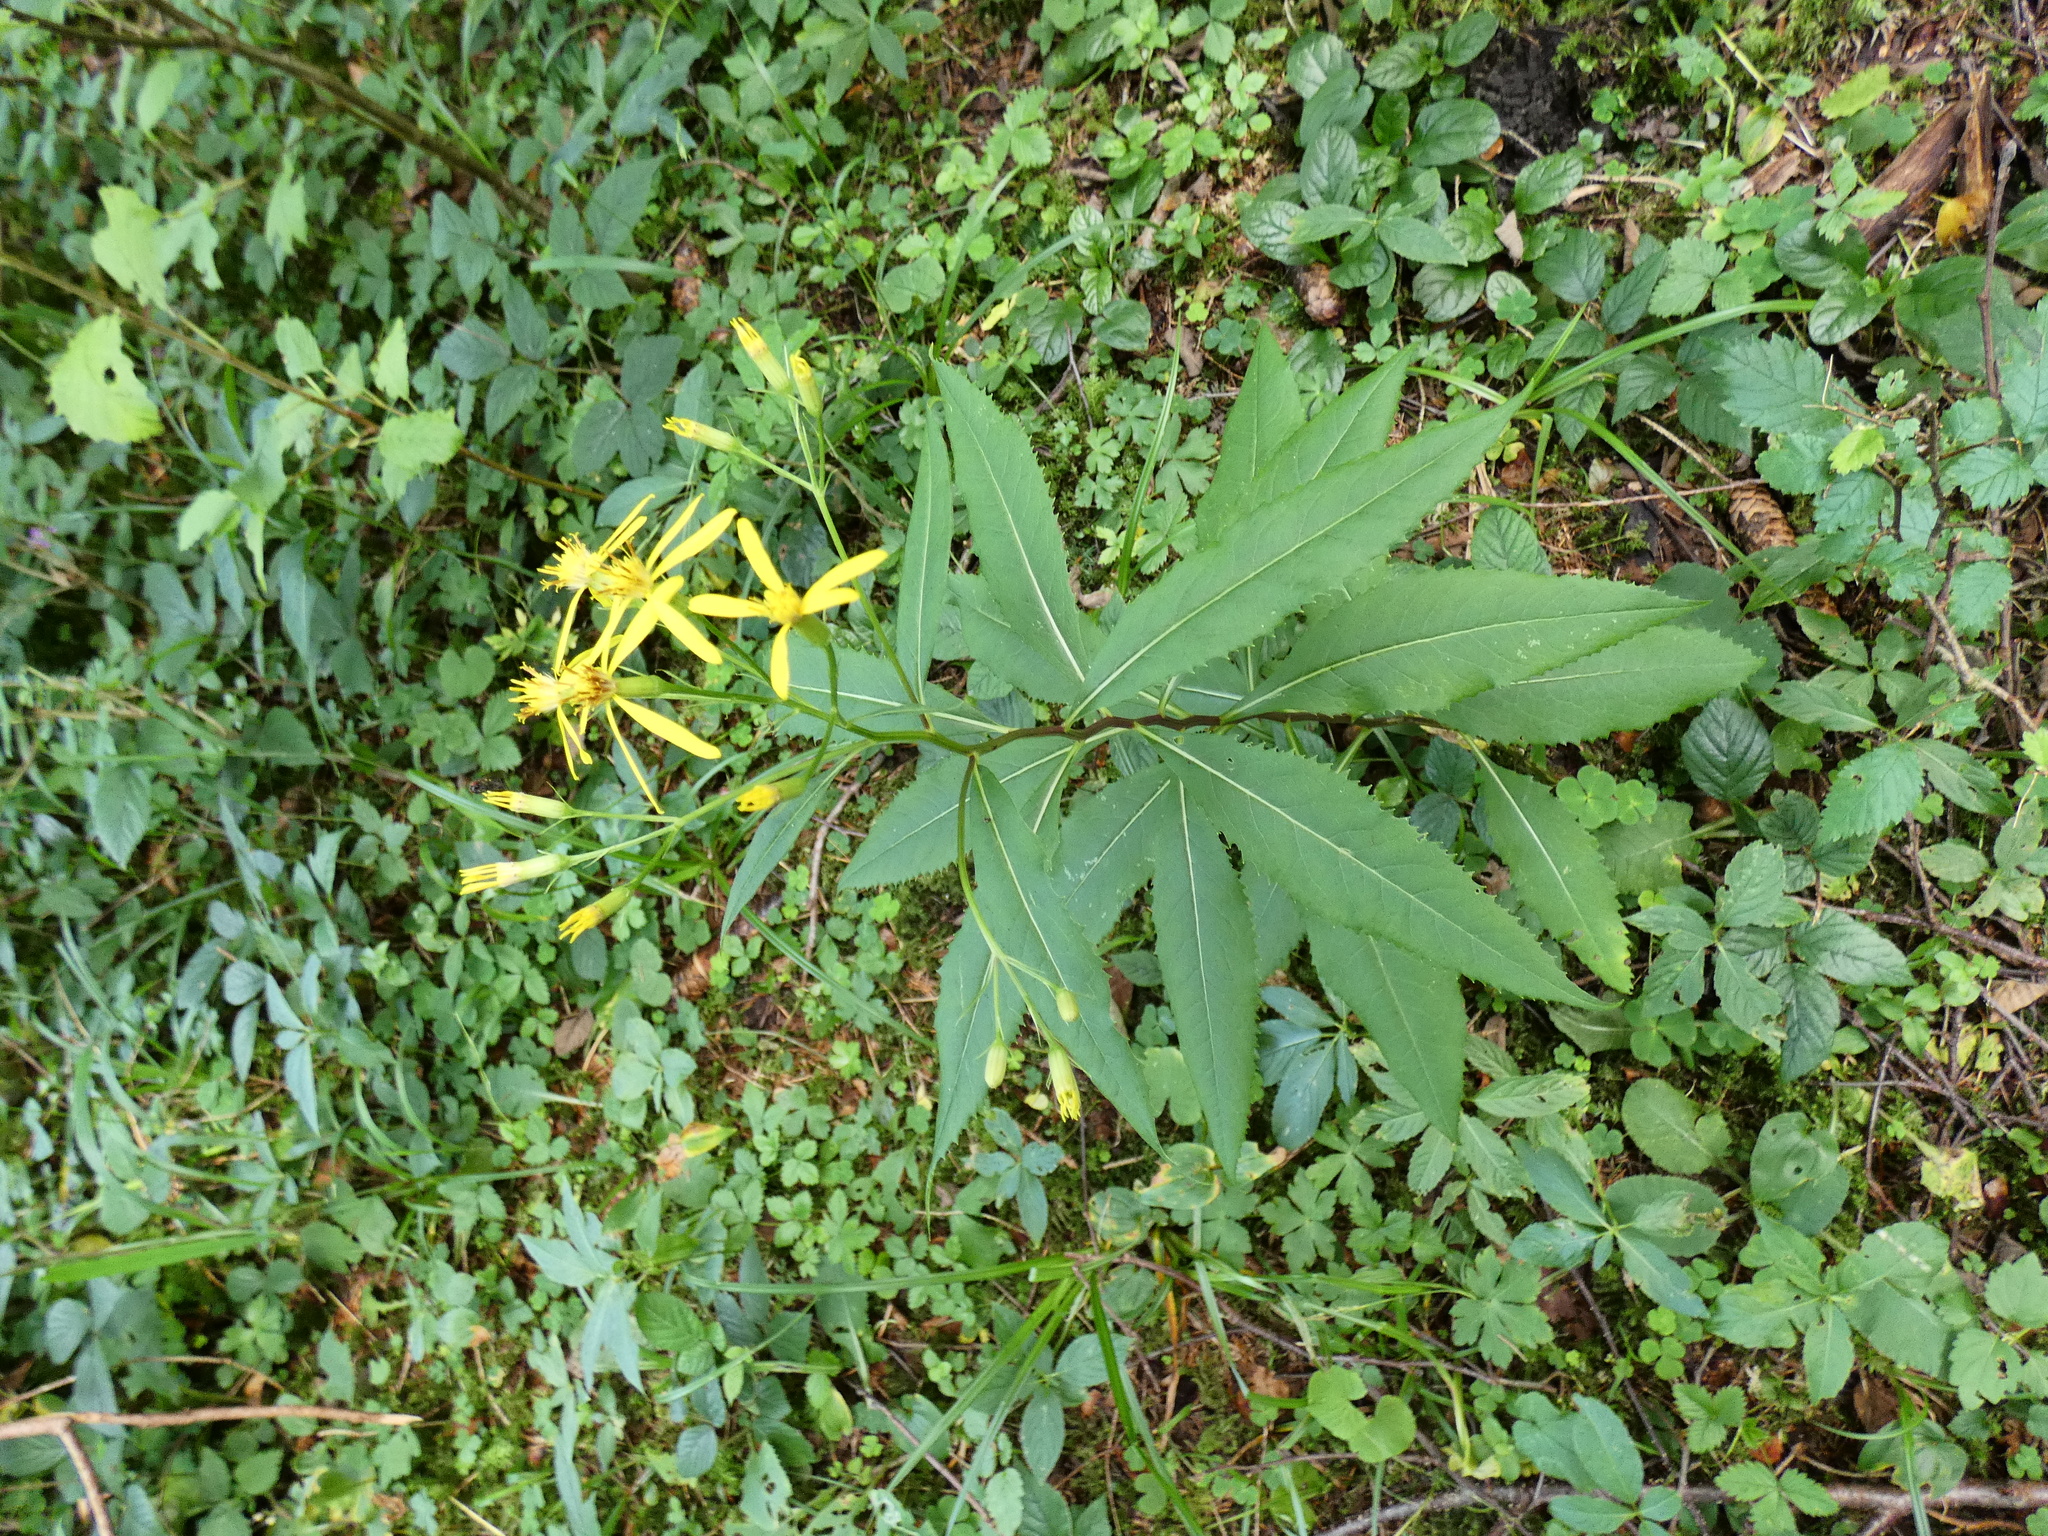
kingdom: Plantae
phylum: Tracheophyta
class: Magnoliopsida
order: Asterales
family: Asteraceae
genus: Senecio
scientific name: Senecio ovatus
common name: Wood ragwort
